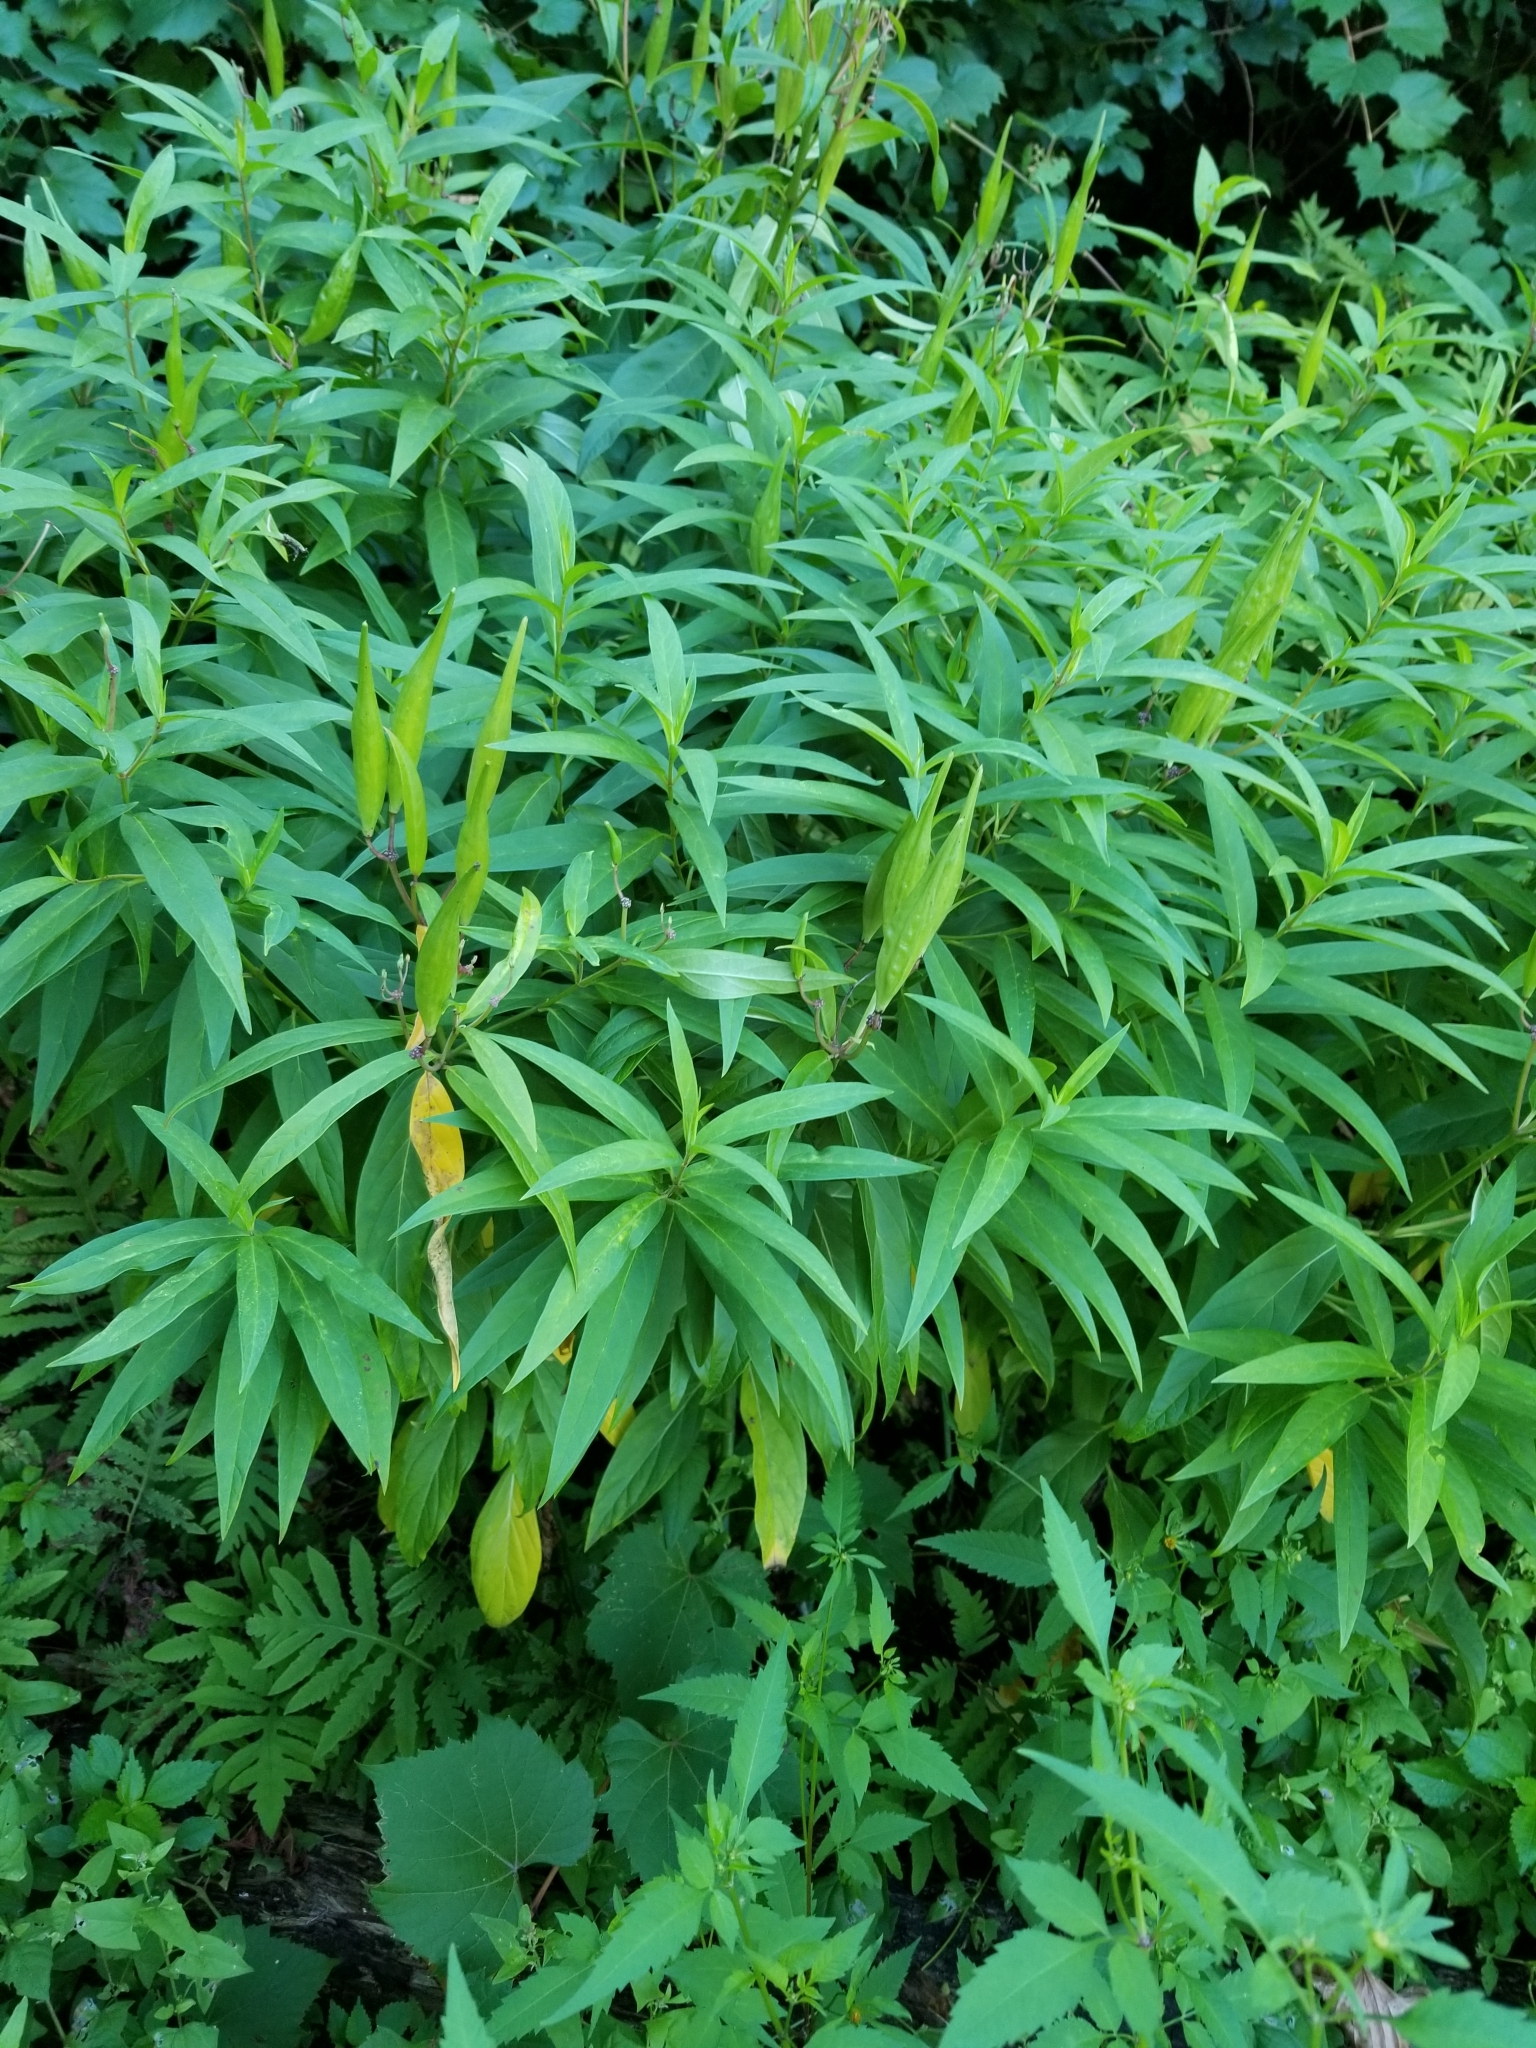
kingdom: Plantae
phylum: Tracheophyta
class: Magnoliopsida
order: Gentianales
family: Apocynaceae
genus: Asclepias
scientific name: Asclepias incarnata
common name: Swamp milkweed
